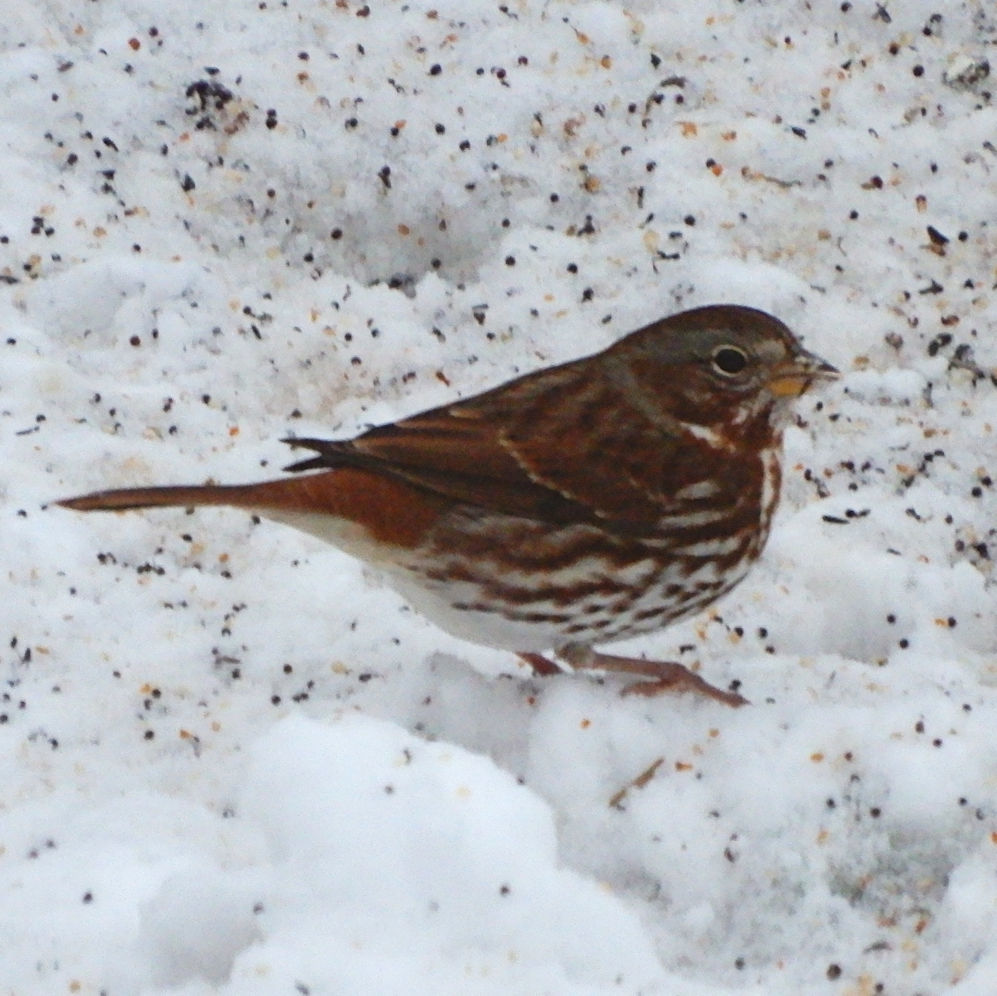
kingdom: Animalia
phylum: Chordata
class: Aves
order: Passeriformes
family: Passerellidae
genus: Passerella
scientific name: Passerella iliaca
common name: Fox sparrow
